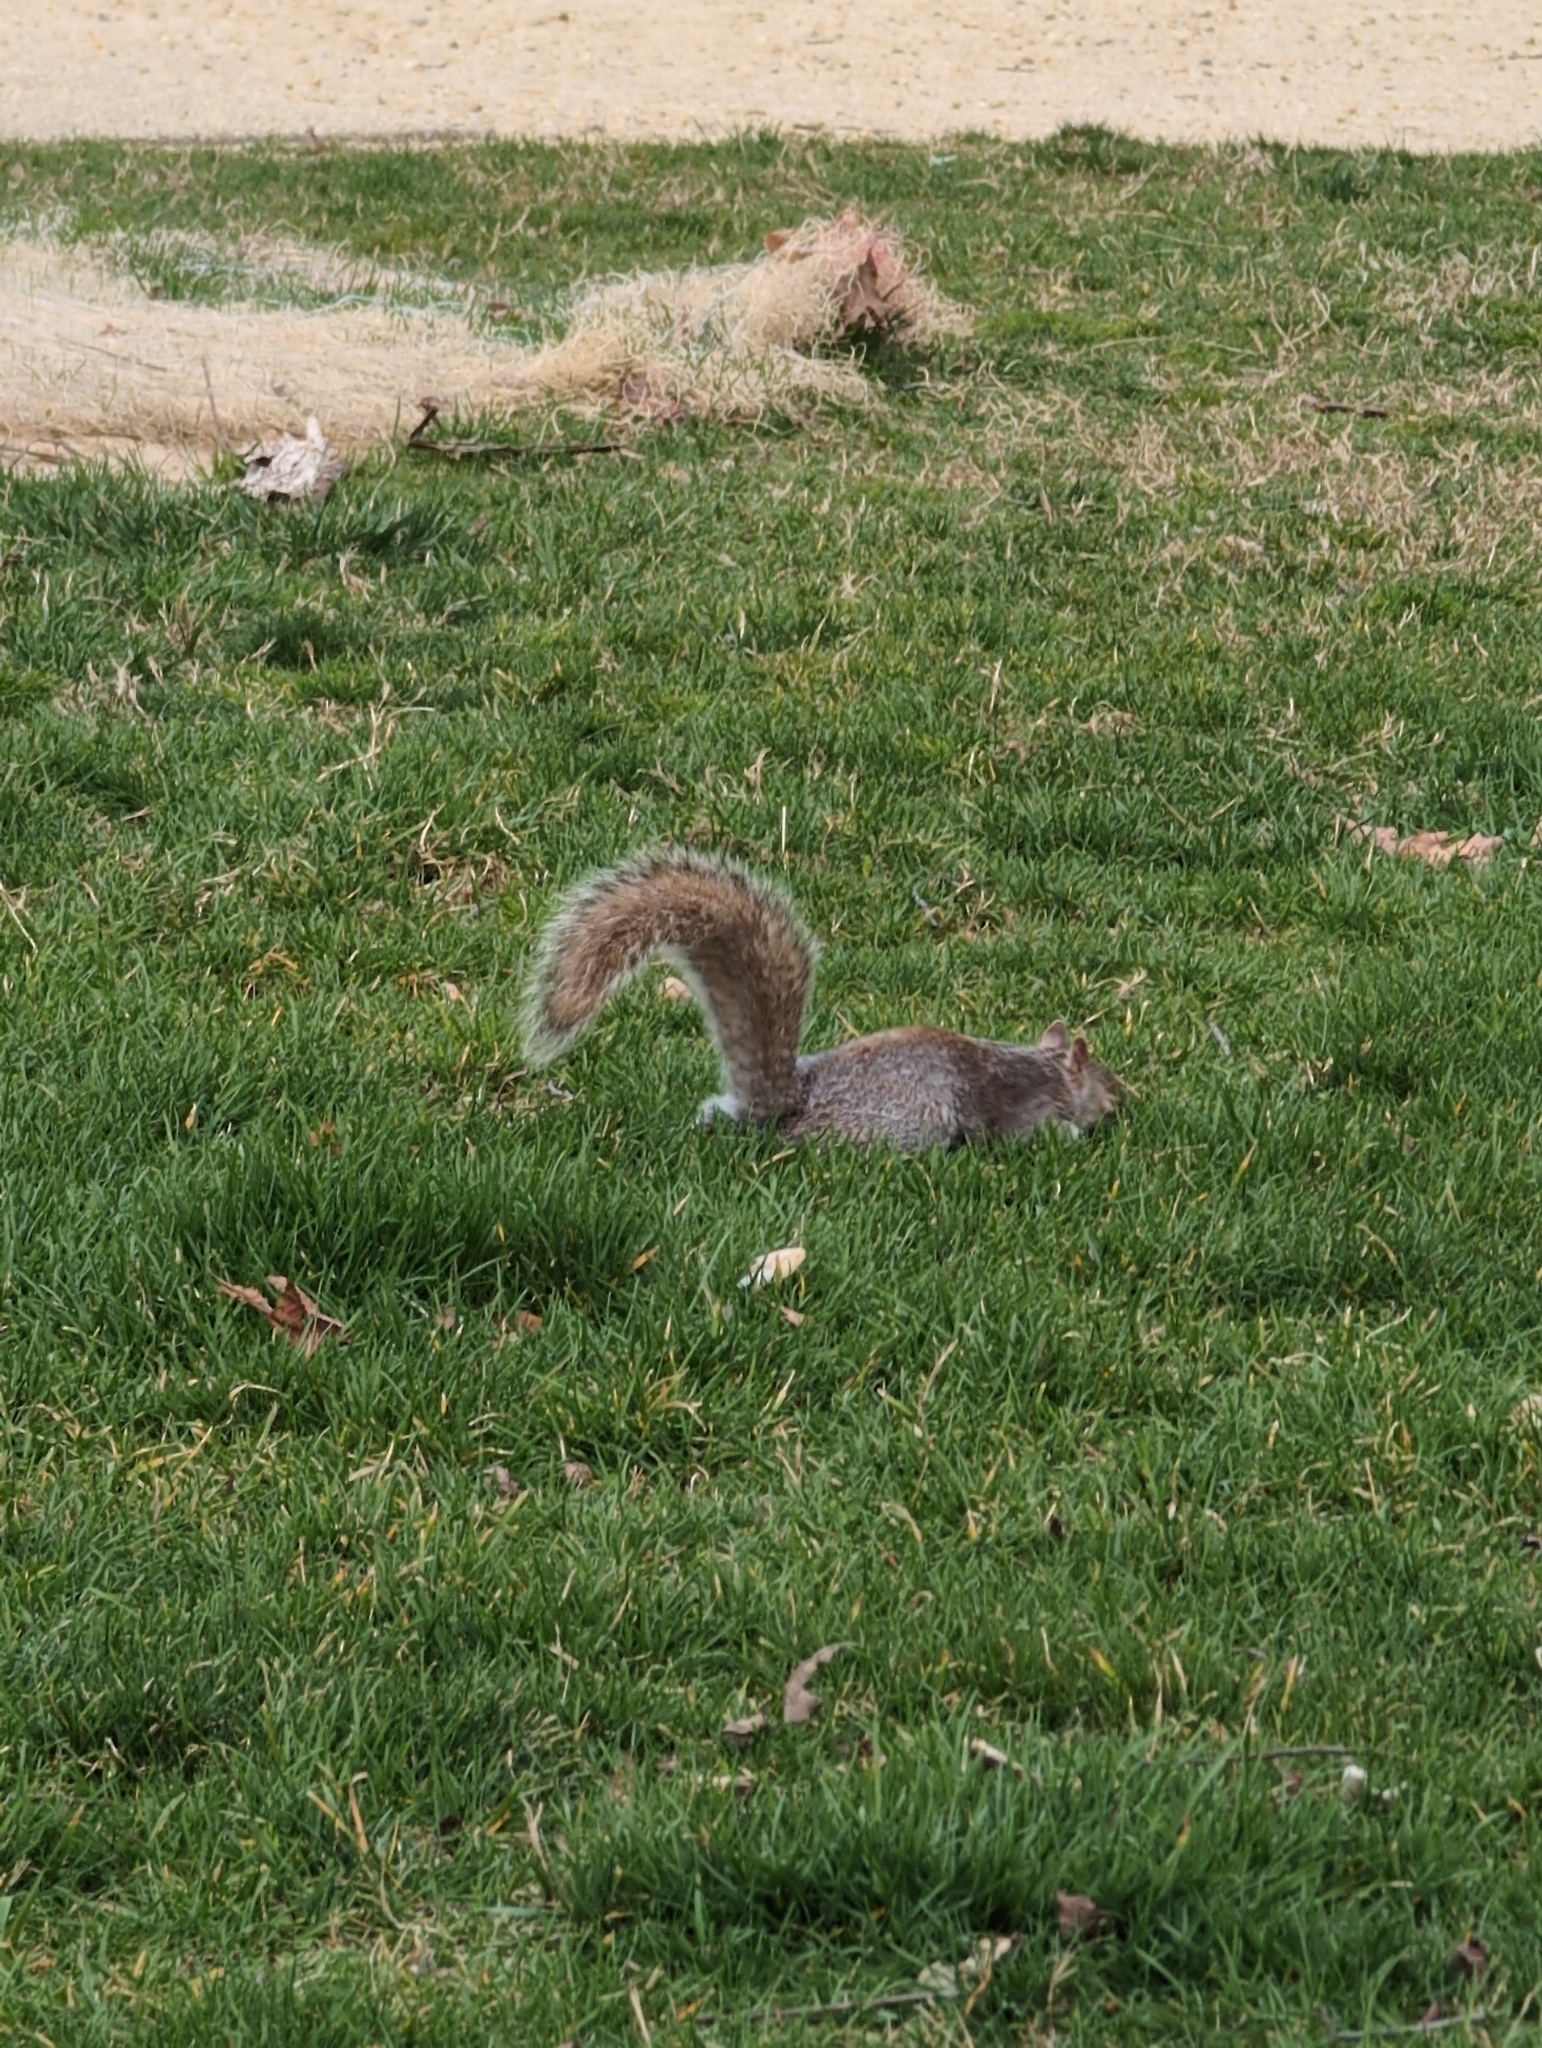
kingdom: Animalia
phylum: Chordata
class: Mammalia
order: Rodentia
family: Sciuridae
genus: Sciurus
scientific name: Sciurus carolinensis
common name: Eastern gray squirrel
